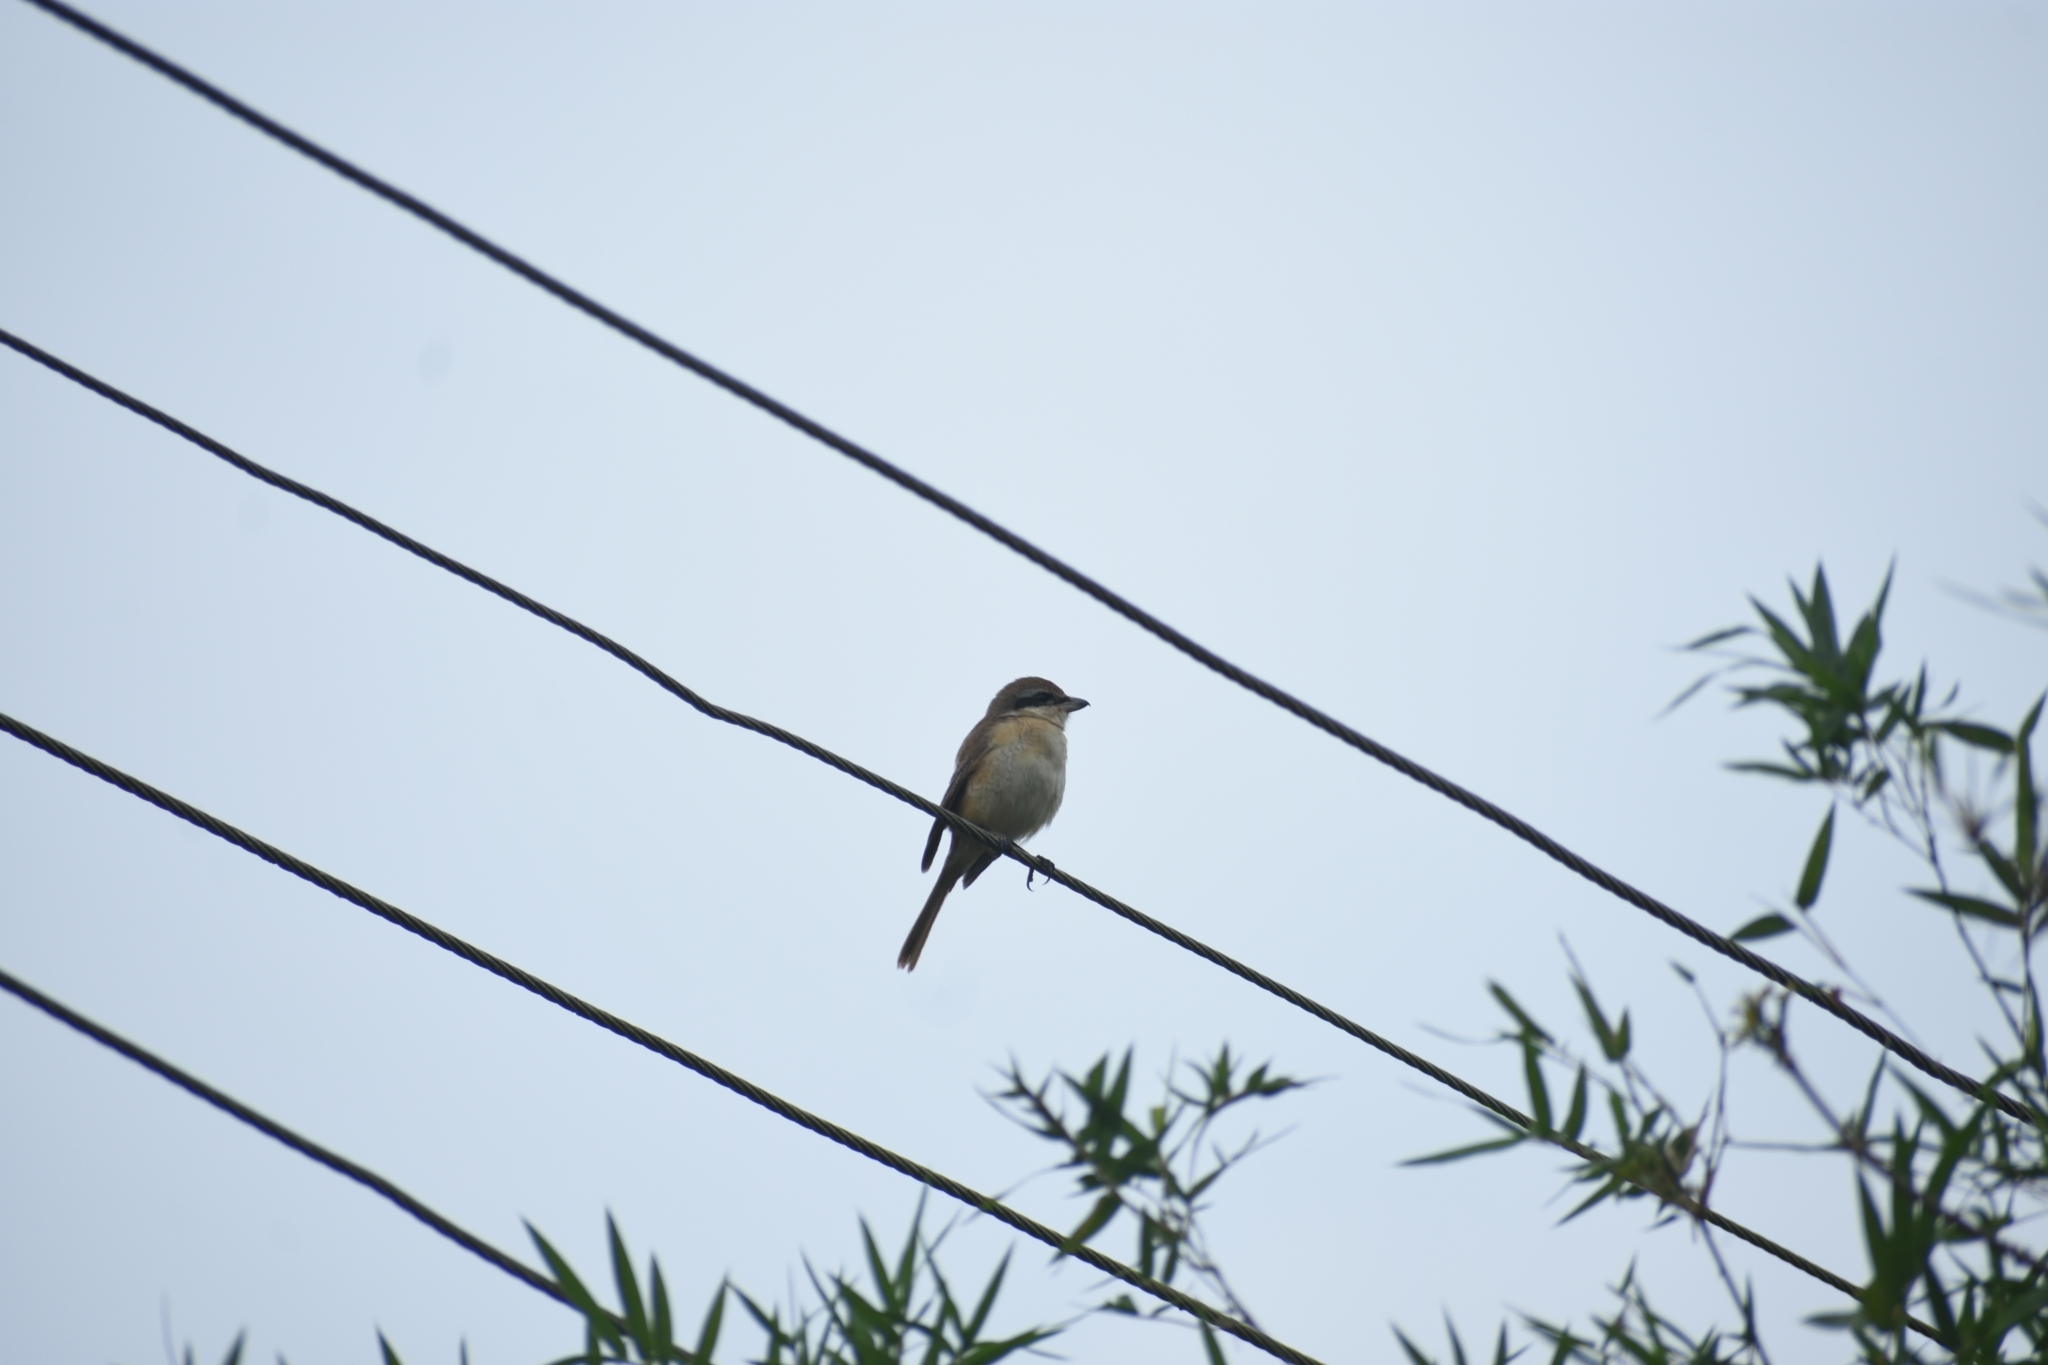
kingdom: Animalia
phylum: Chordata
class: Aves
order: Passeriformes
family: Laniidae
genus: Lanius
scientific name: Lanius cristatus
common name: Brown shrike
